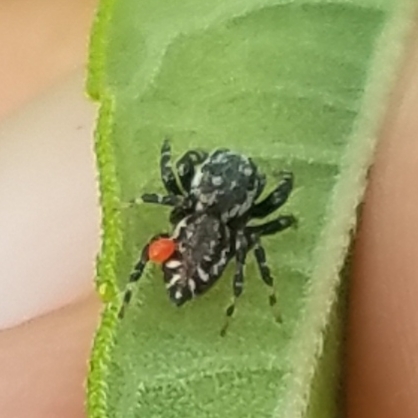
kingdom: Animalia
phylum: Arthropoda
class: Arachnida
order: Araneae
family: Salticidae
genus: Pelegrina
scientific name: Pelegrina galathea
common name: Jumping spiders
